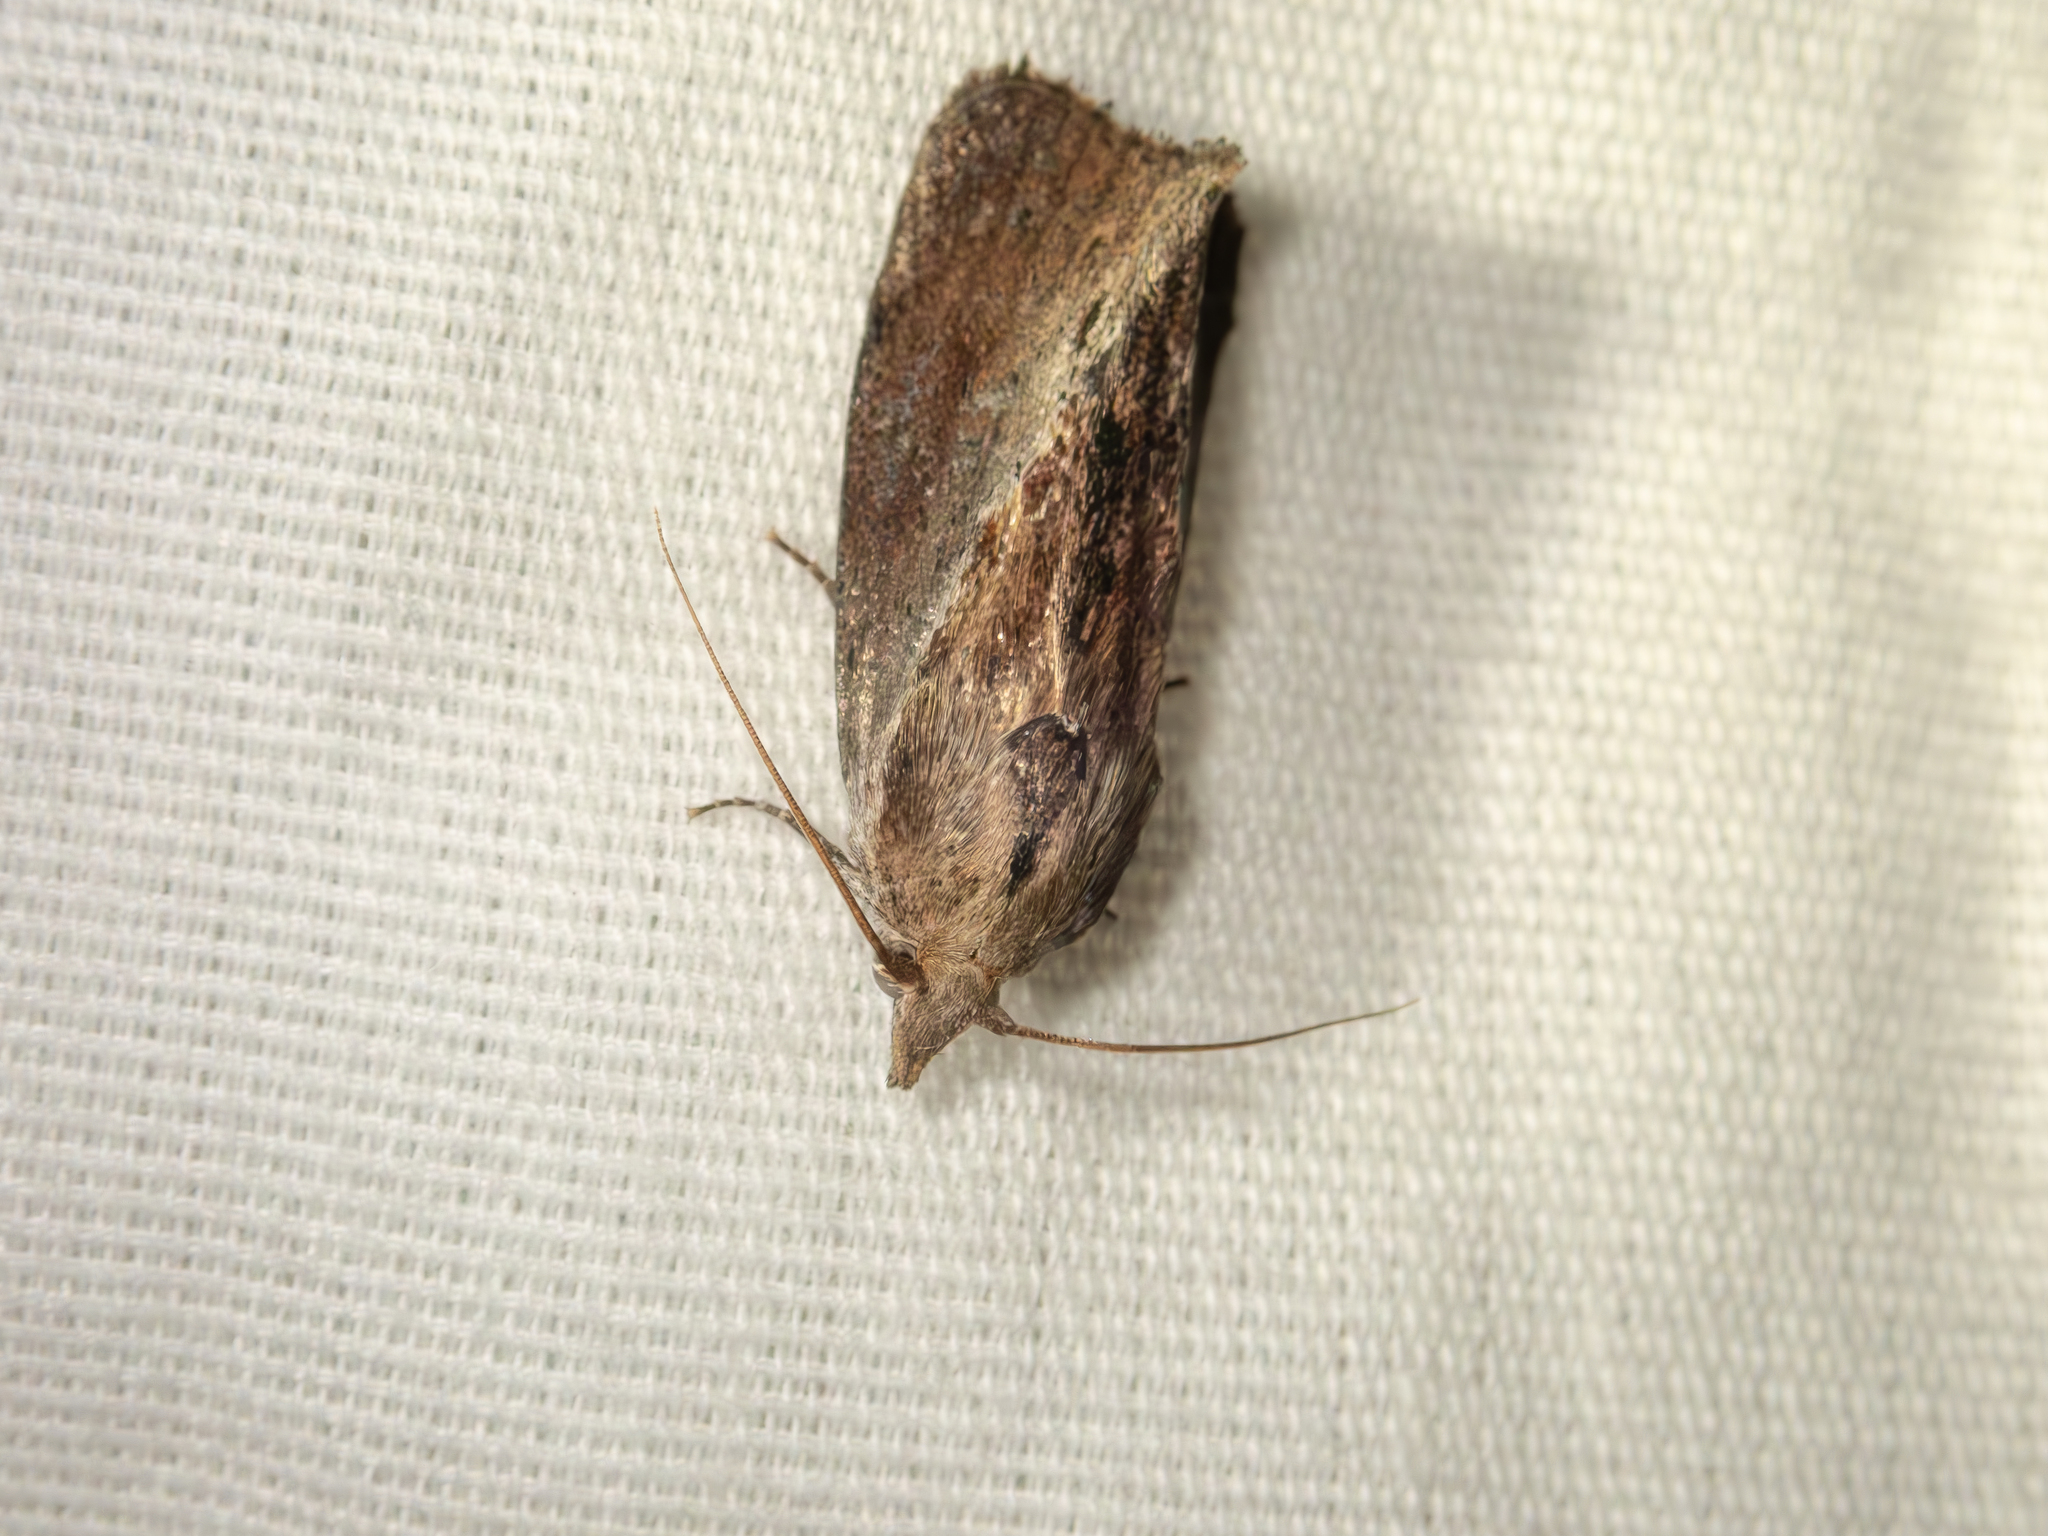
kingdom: Animalia
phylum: Arthropoda
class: Insecta
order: Lepidoptera
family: Pyralidae
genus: Galleria
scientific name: Galleria mellonella
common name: Greater wax moth
